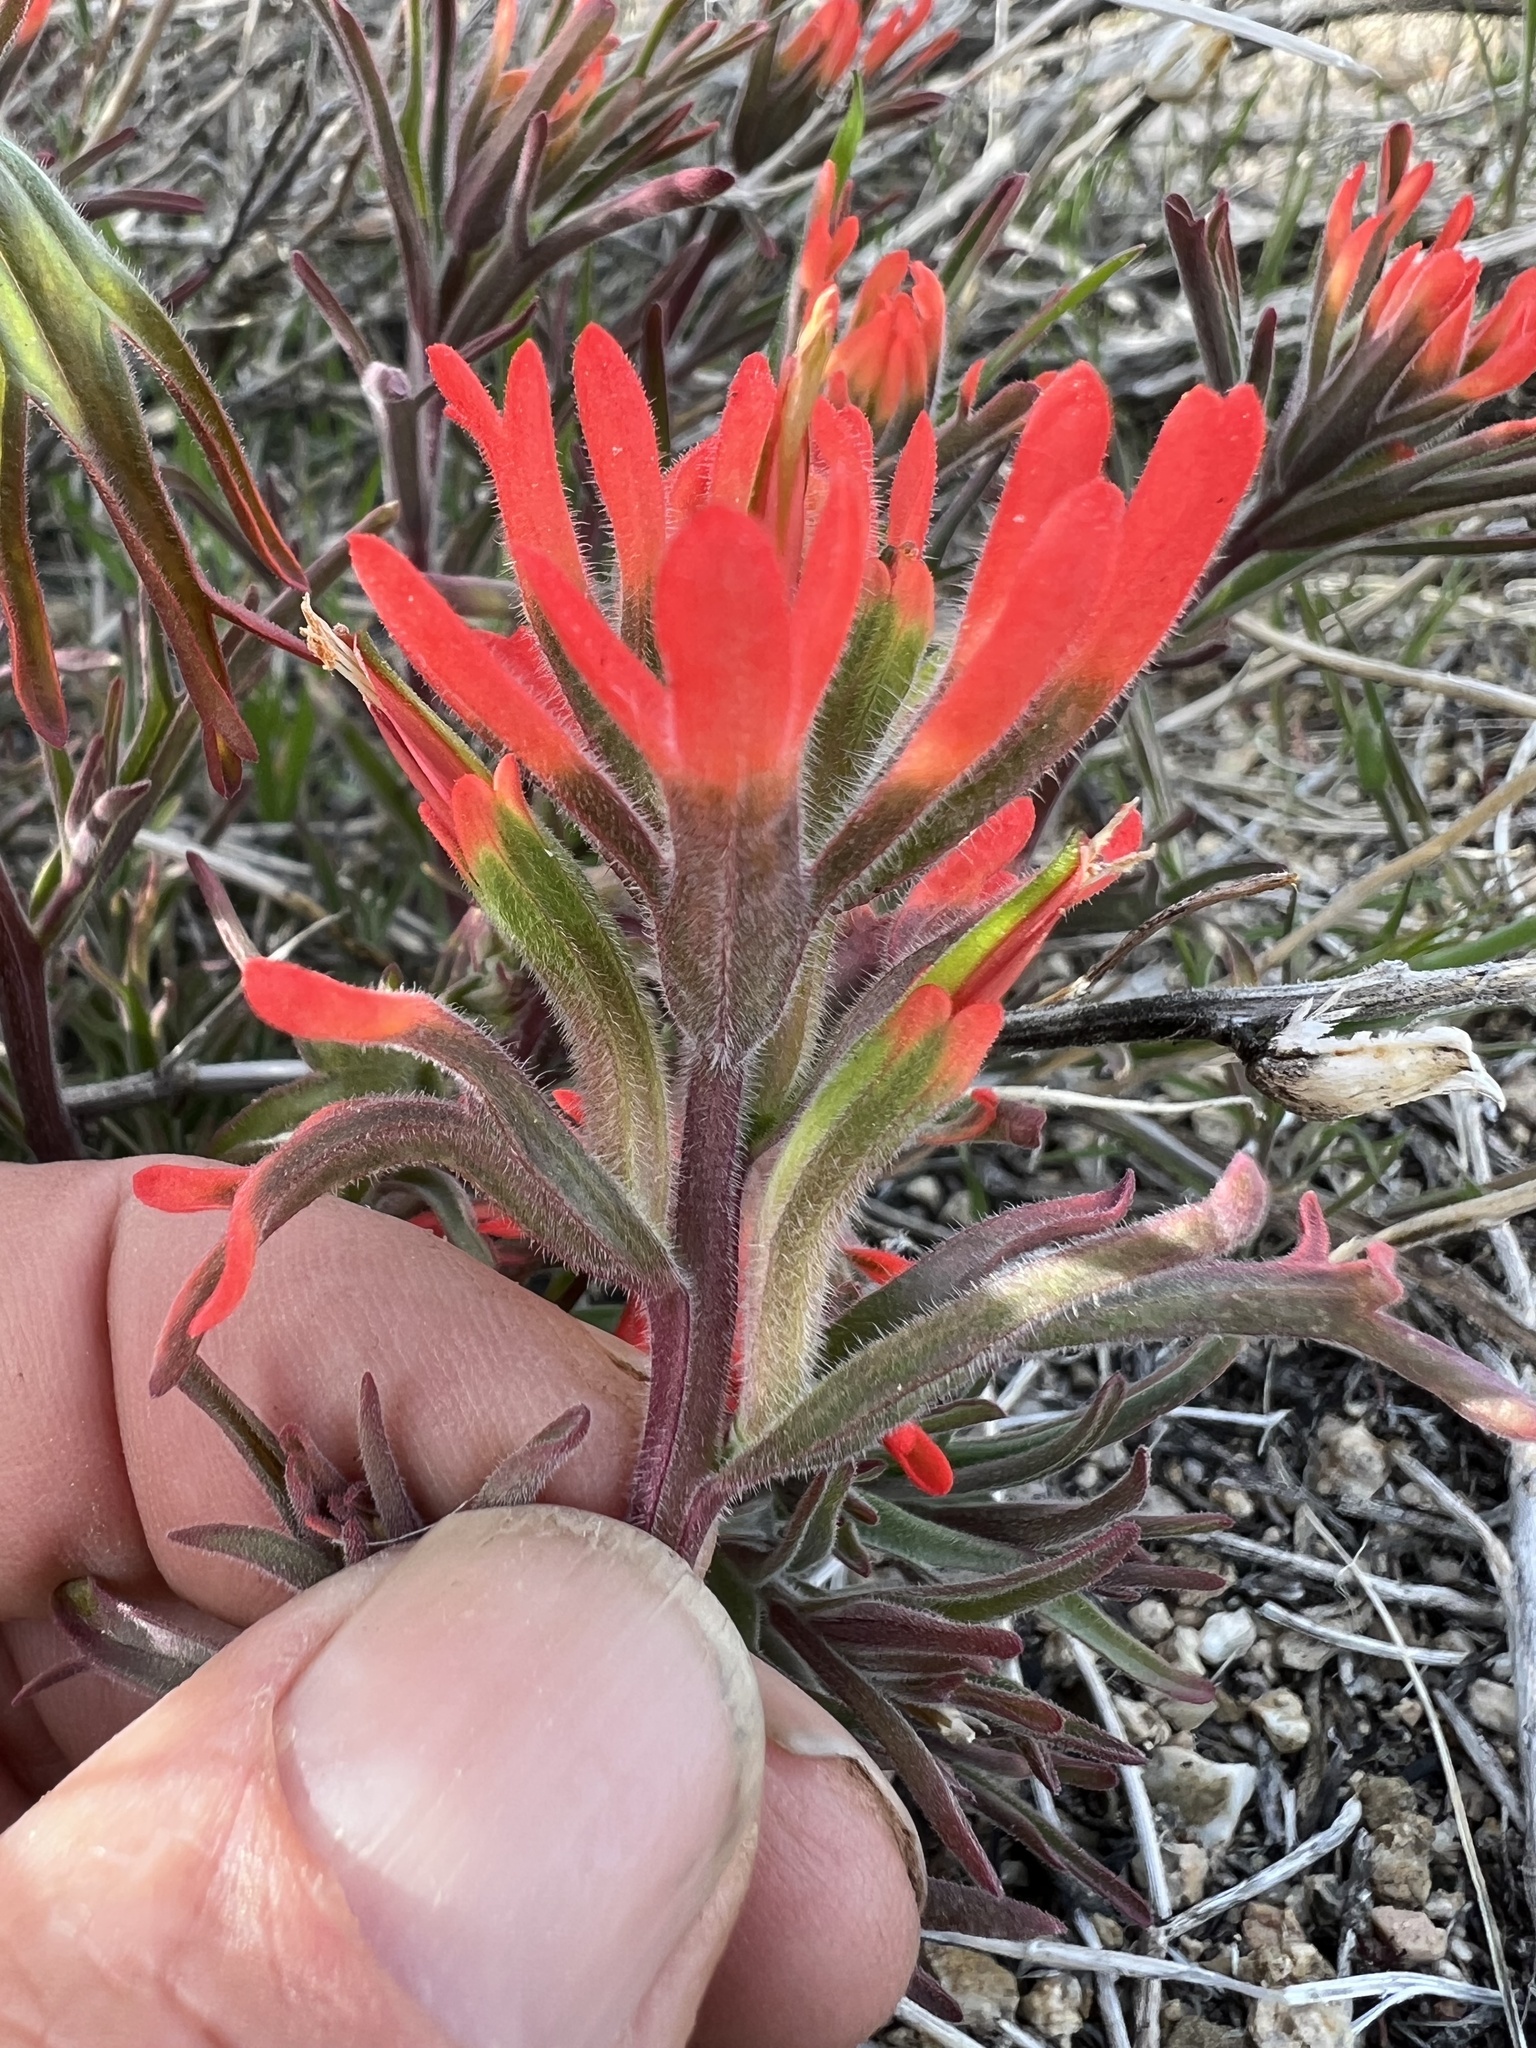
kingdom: Plantae
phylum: Tracheophyta
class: Magnoliopsida
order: Lamiales
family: Orobanchaceae
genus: Castilleja
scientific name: Castilleja chromosa
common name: Desert paintbrush
